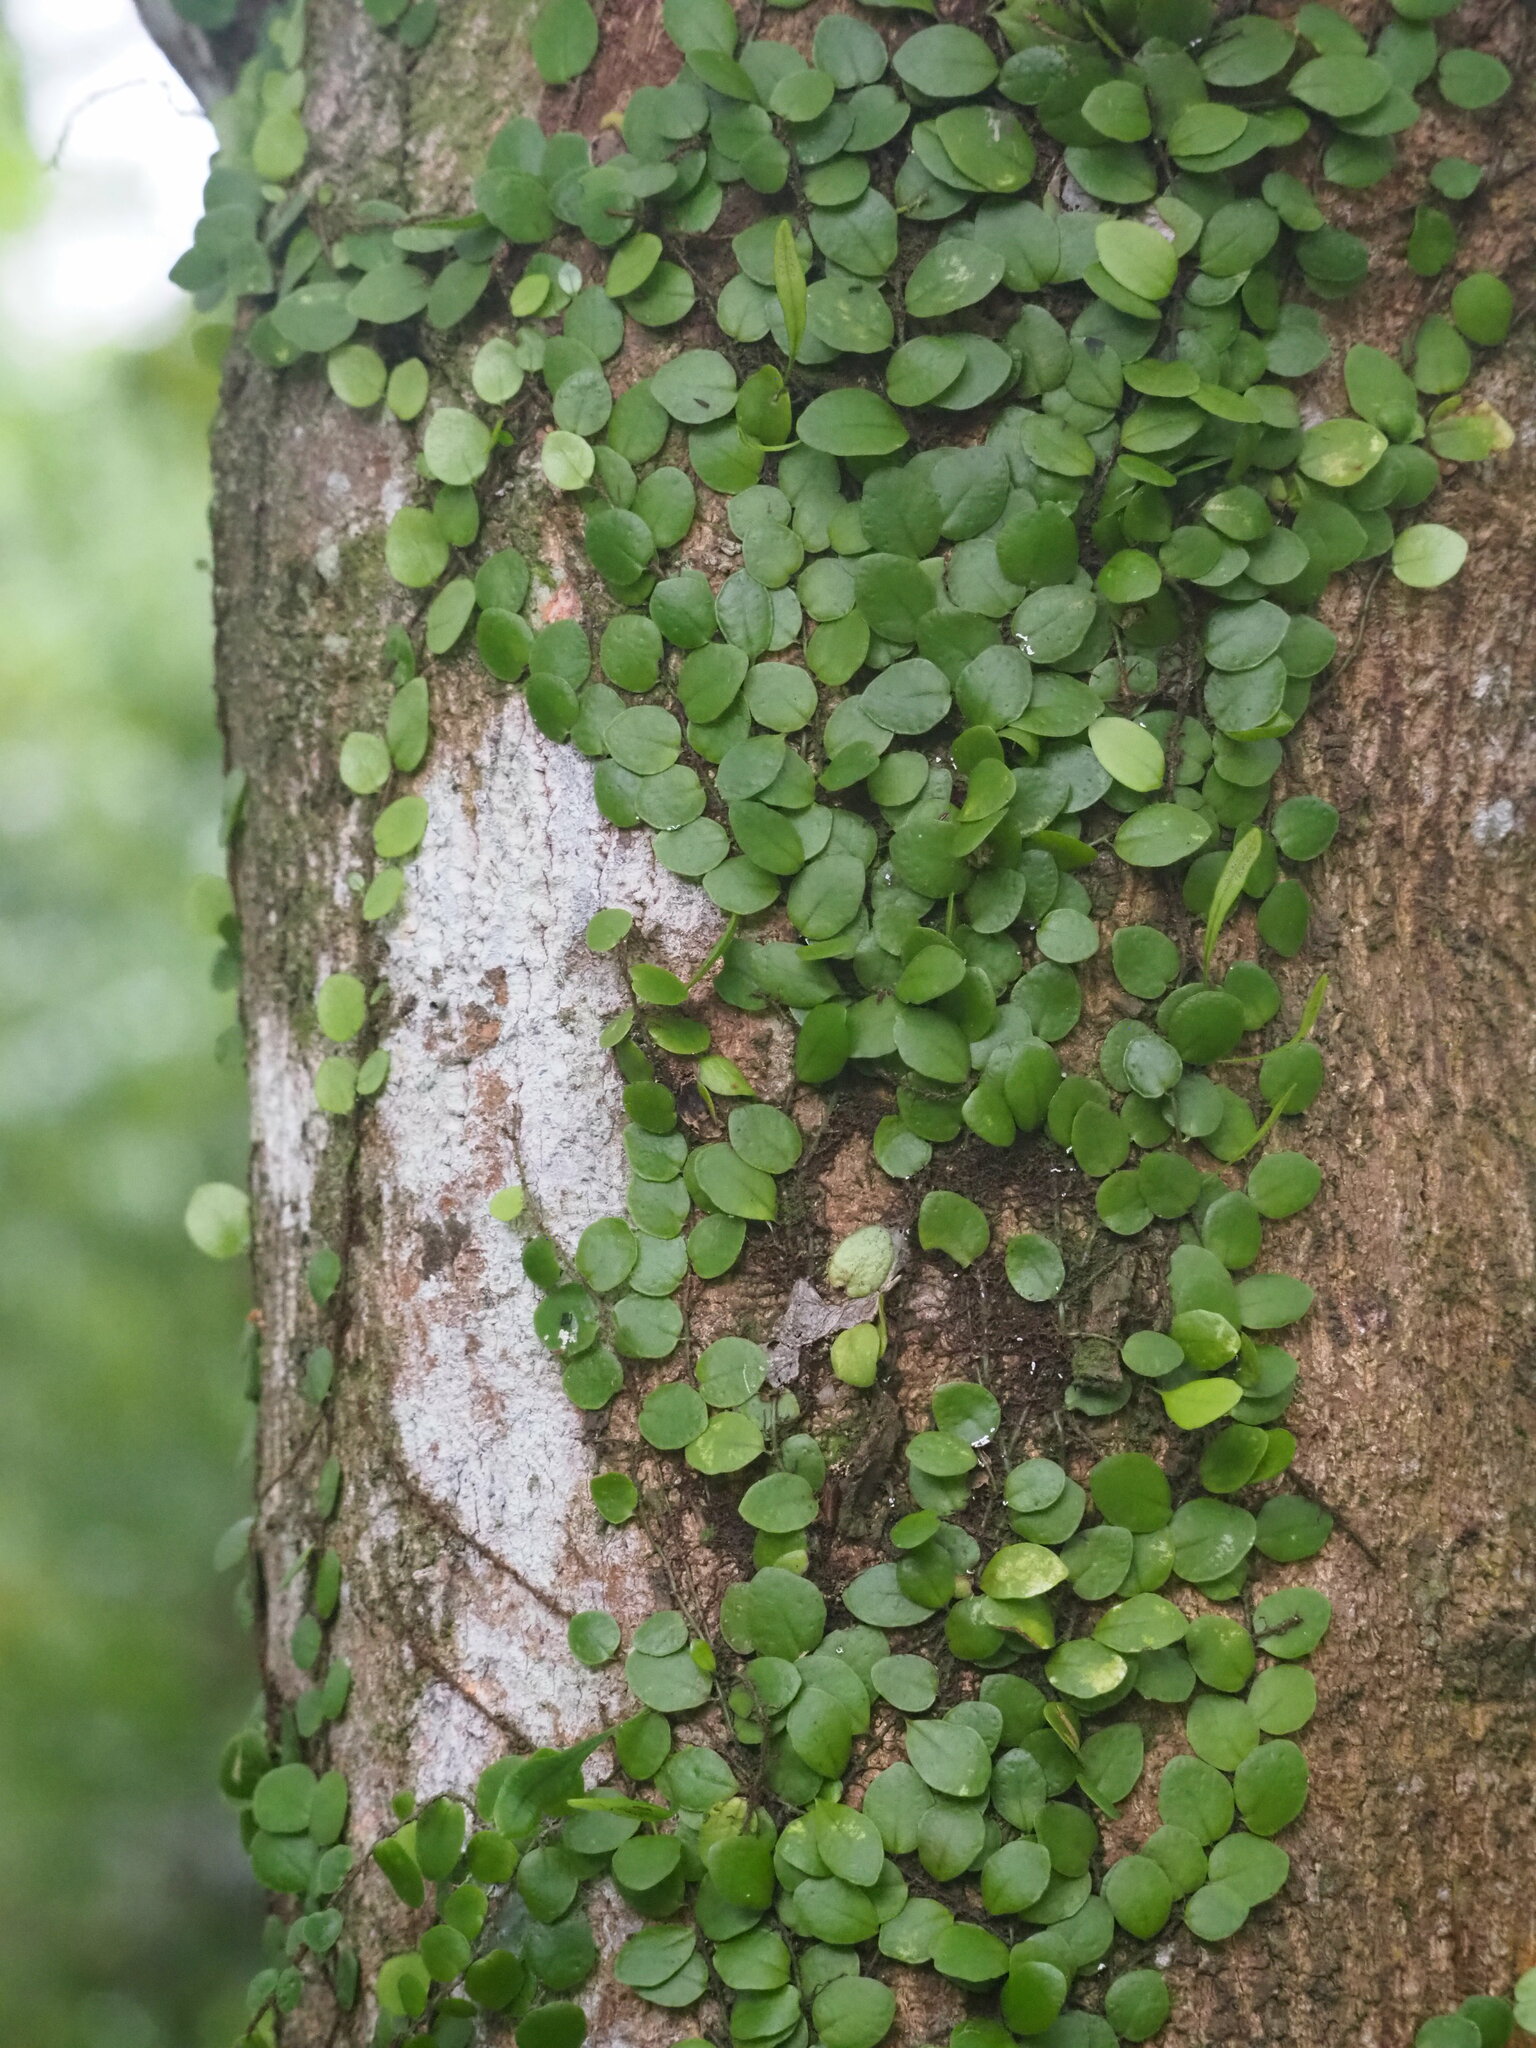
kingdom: Plantae
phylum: Tracheophyta
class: Polypodiopsida
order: Polypodiales
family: Polypodiaceae
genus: Lepisorus
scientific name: Lepisorus microphyllus
